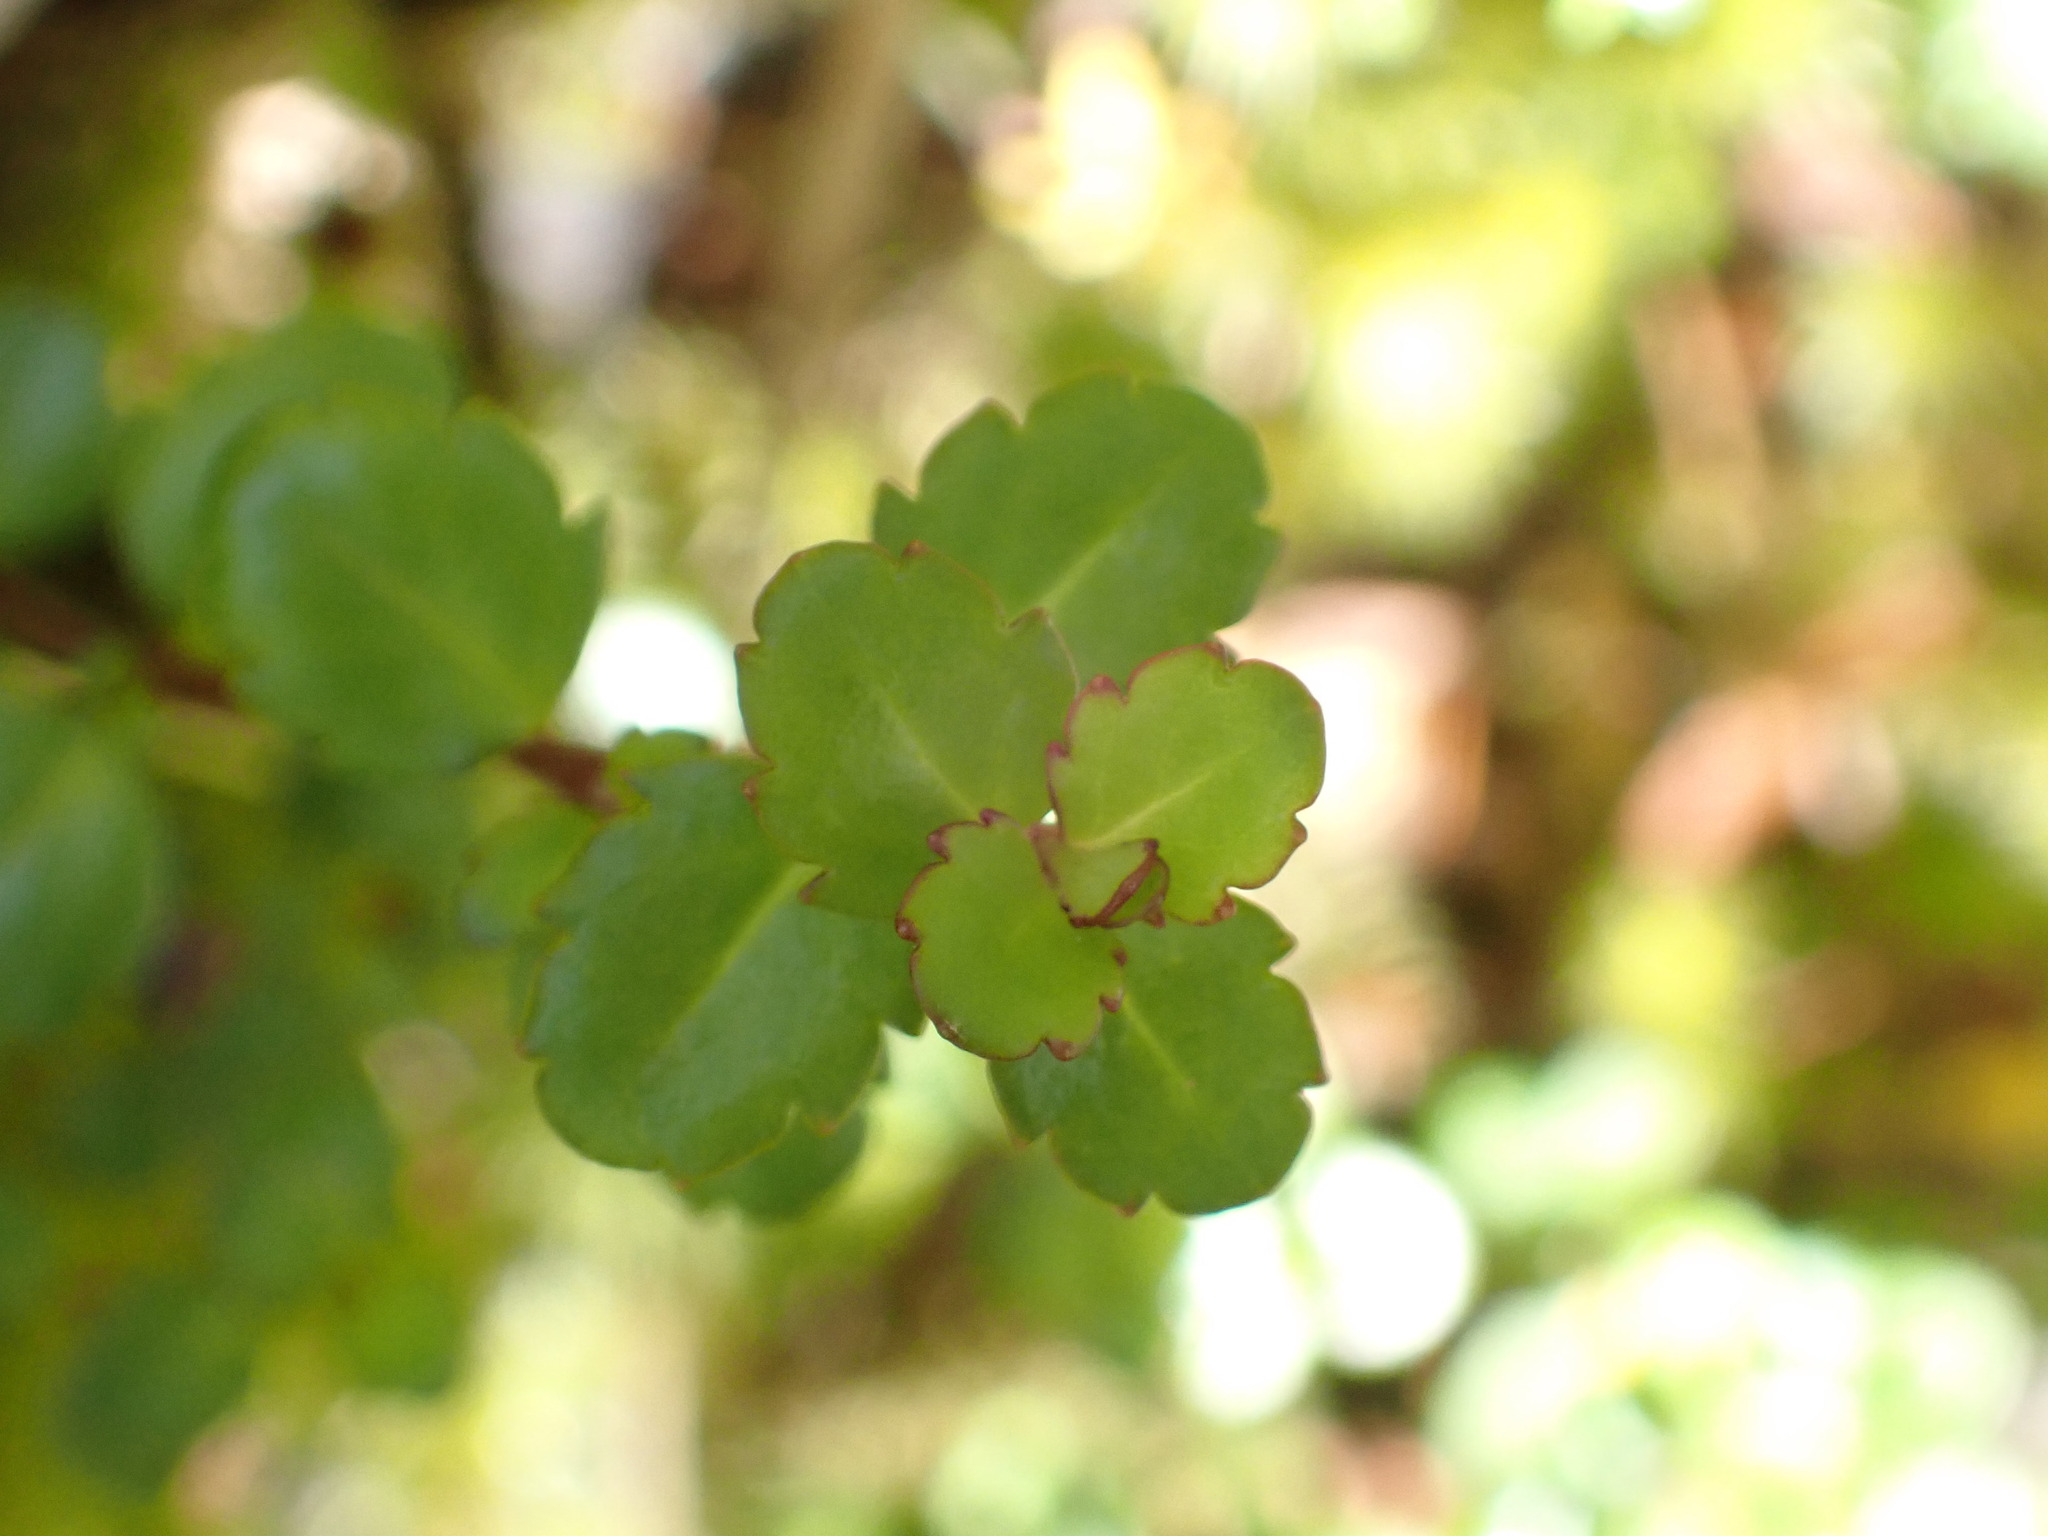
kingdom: Plantae
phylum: Tracheophyta
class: Magnoliopsida
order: Lamiales
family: Plantaginaceae
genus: Veronica
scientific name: Veronica lyallii
